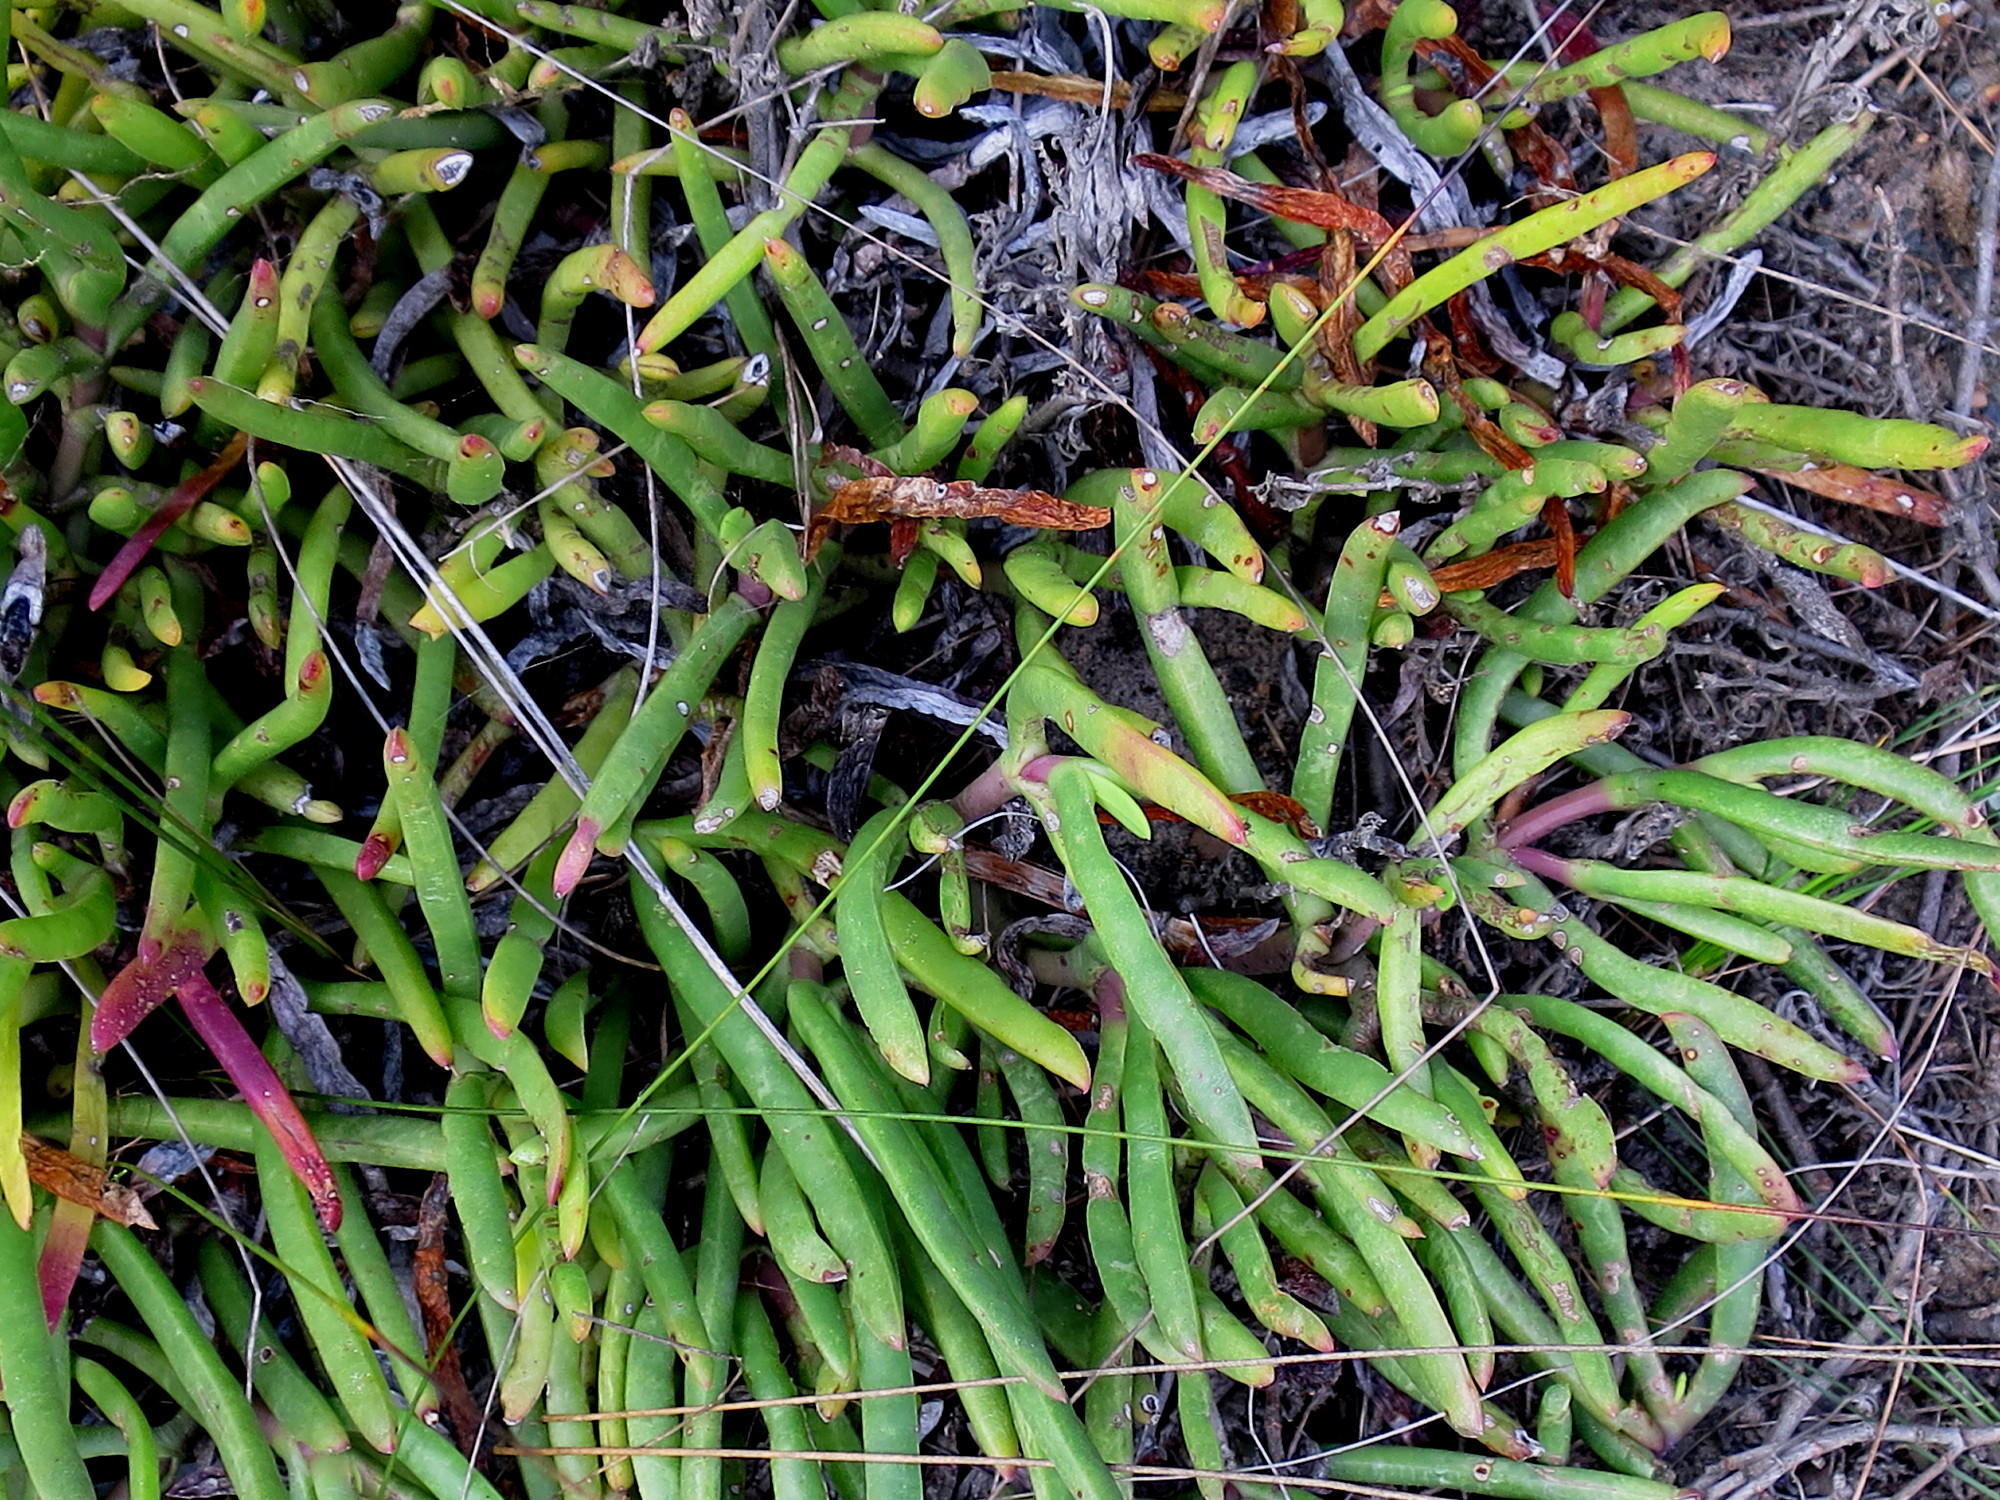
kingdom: Plantae
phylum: Tracheophyta
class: Magnoliopsida
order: Caryophyllales
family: Aizoaceae
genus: Carpobrotus
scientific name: Carpobrotus muirii
